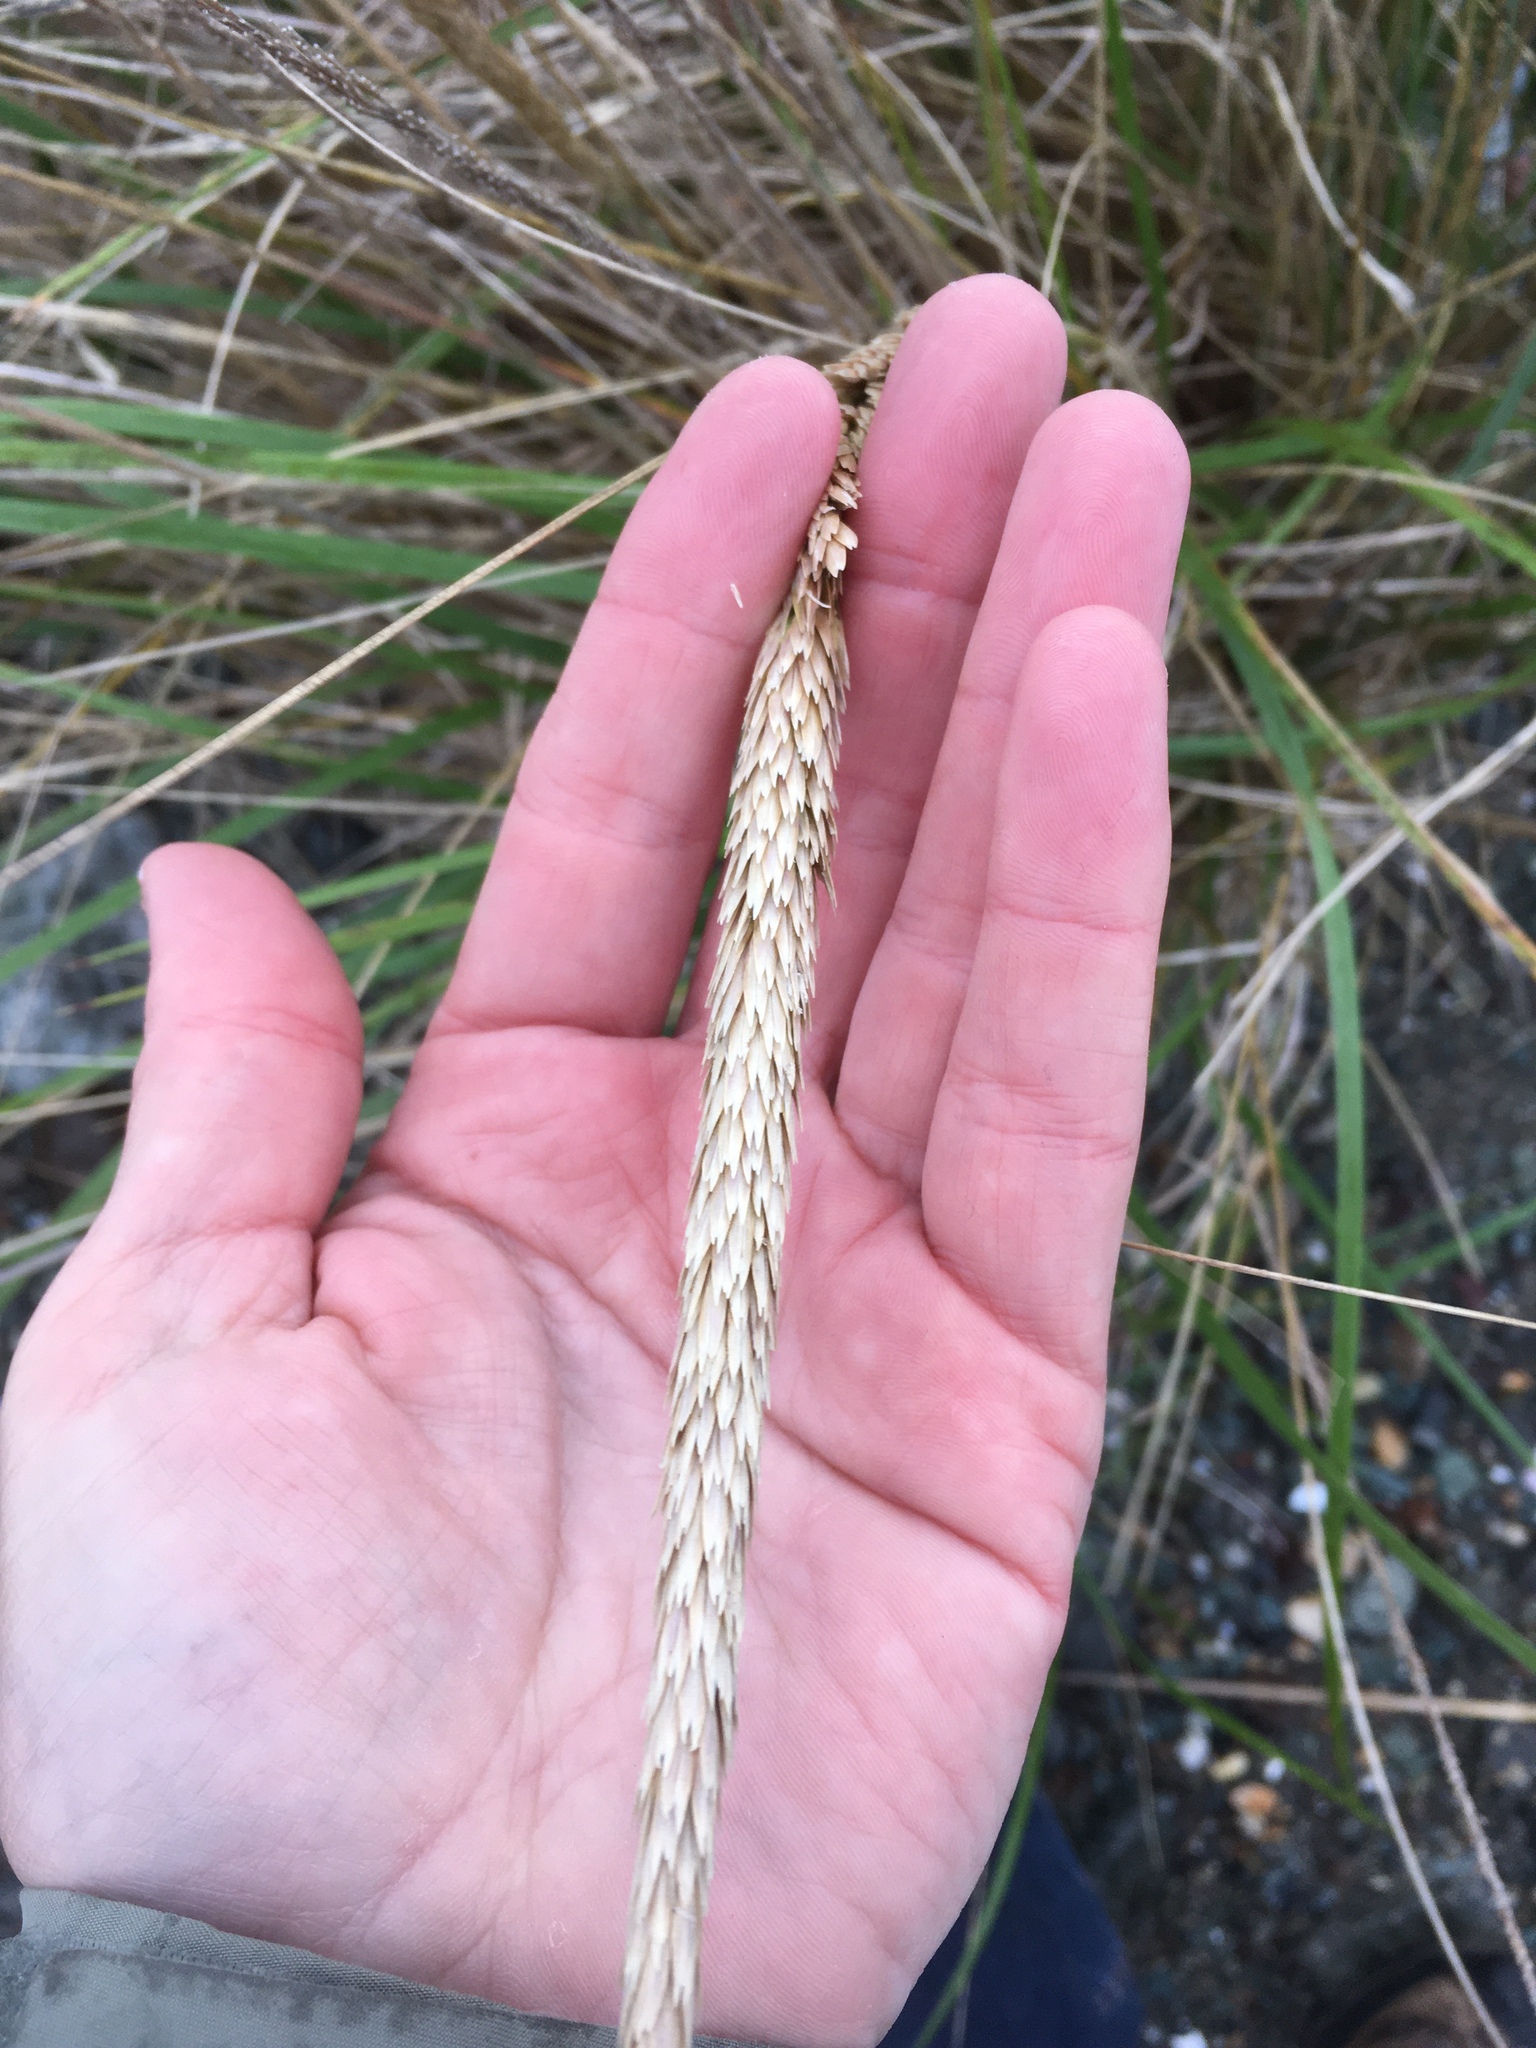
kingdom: Plantae
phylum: Tracheophyta
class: Liliopsida
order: Poales
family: Poaceae
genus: Calamagrostis
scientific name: Calamagrostis breviligulata
